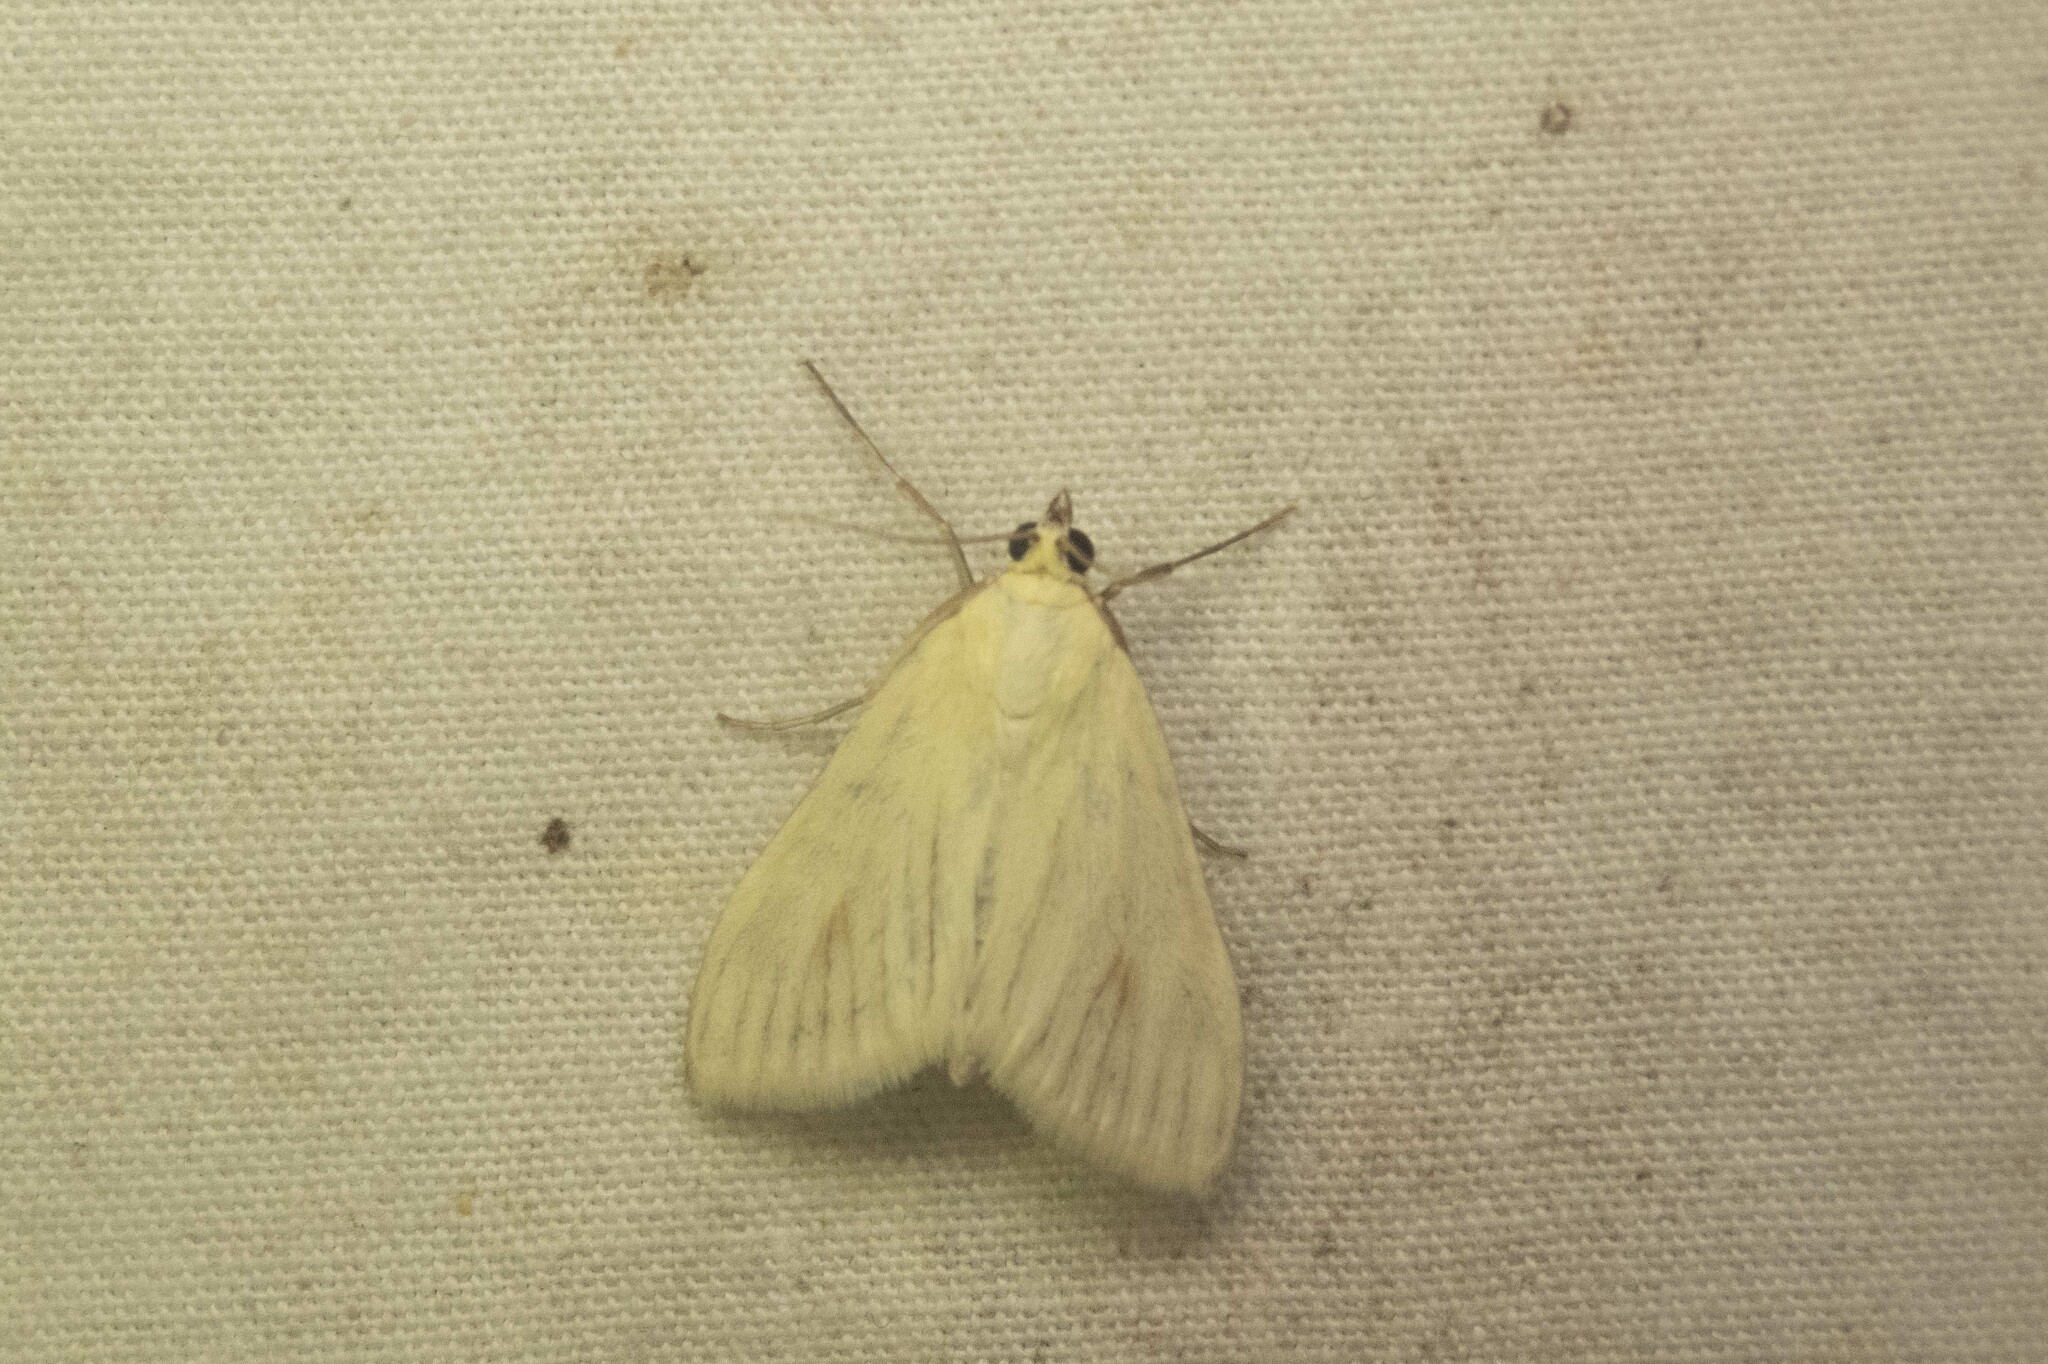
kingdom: Animalia
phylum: Arthropoda
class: Insecta
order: Lepidoptera
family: Crambidae
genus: Sitochroa
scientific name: Sitochroa palealis
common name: Greenish-yellow sitochroa moth
